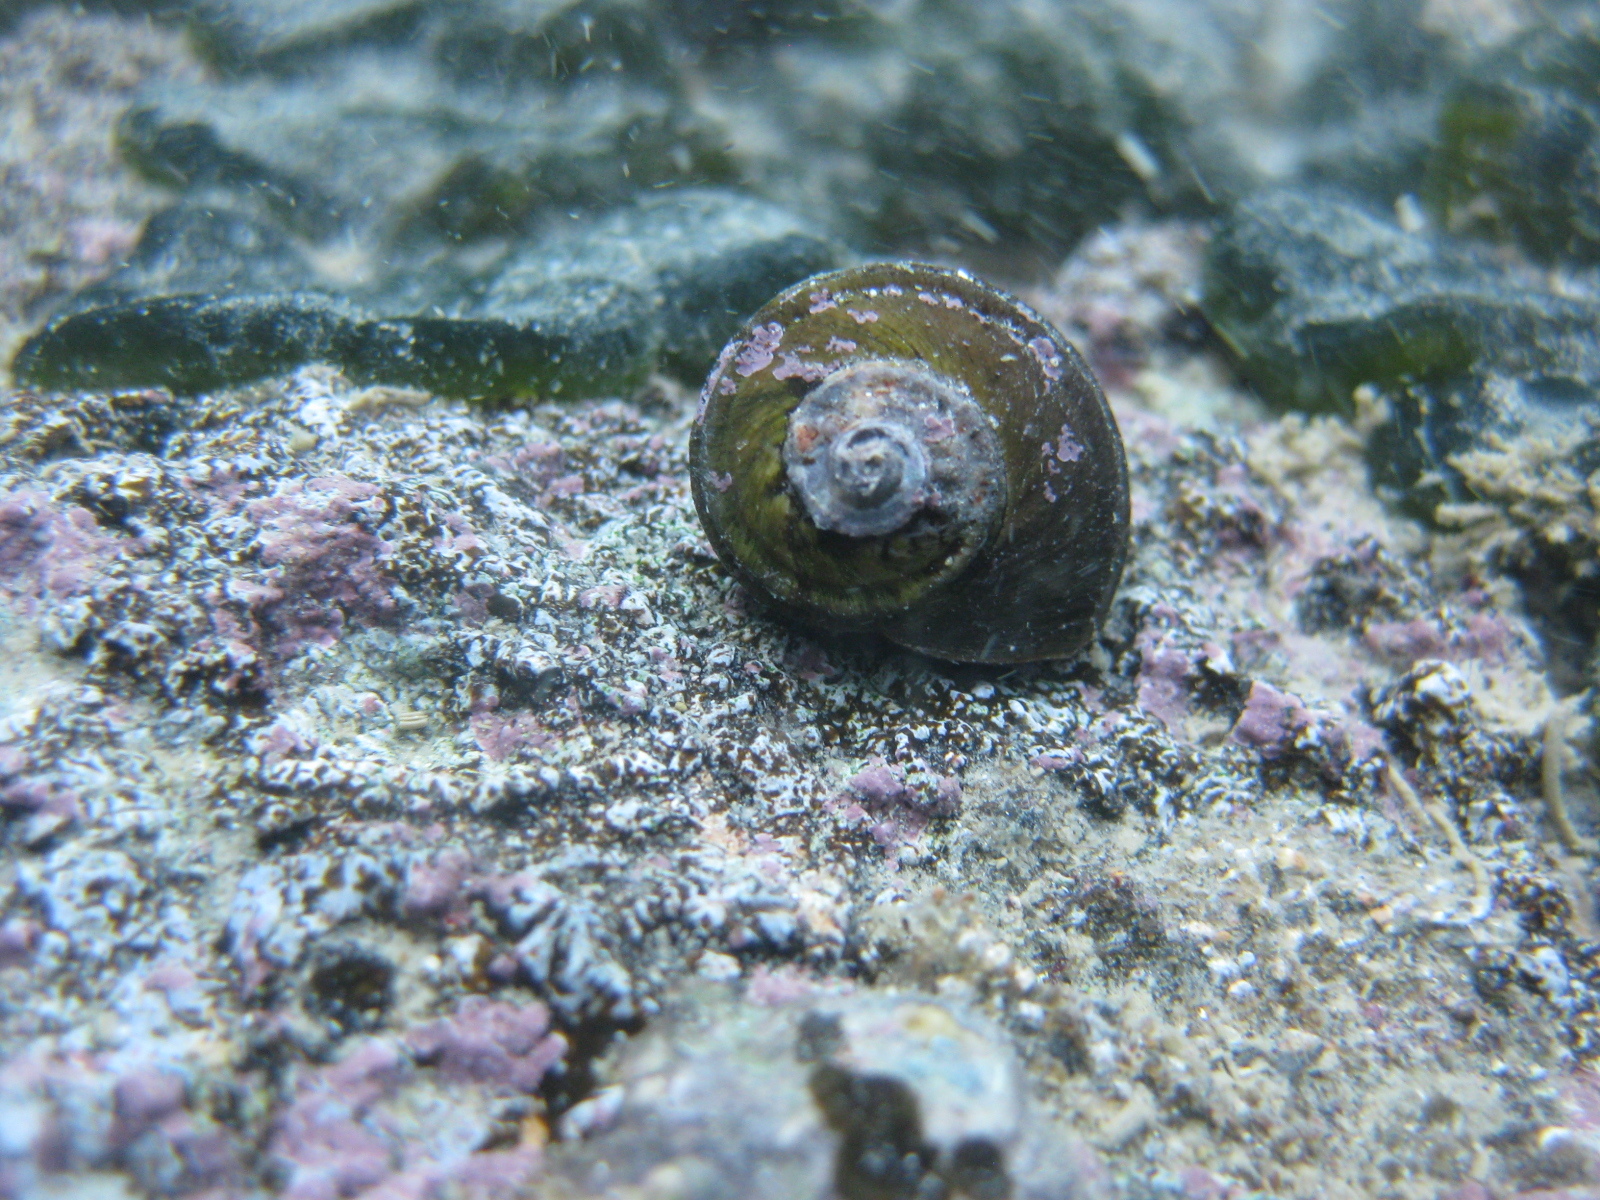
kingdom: Animalia
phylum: Mollusca
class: Gastropoda
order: Trochida
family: Turbinidae
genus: Lunella
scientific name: Lunella smaragda
